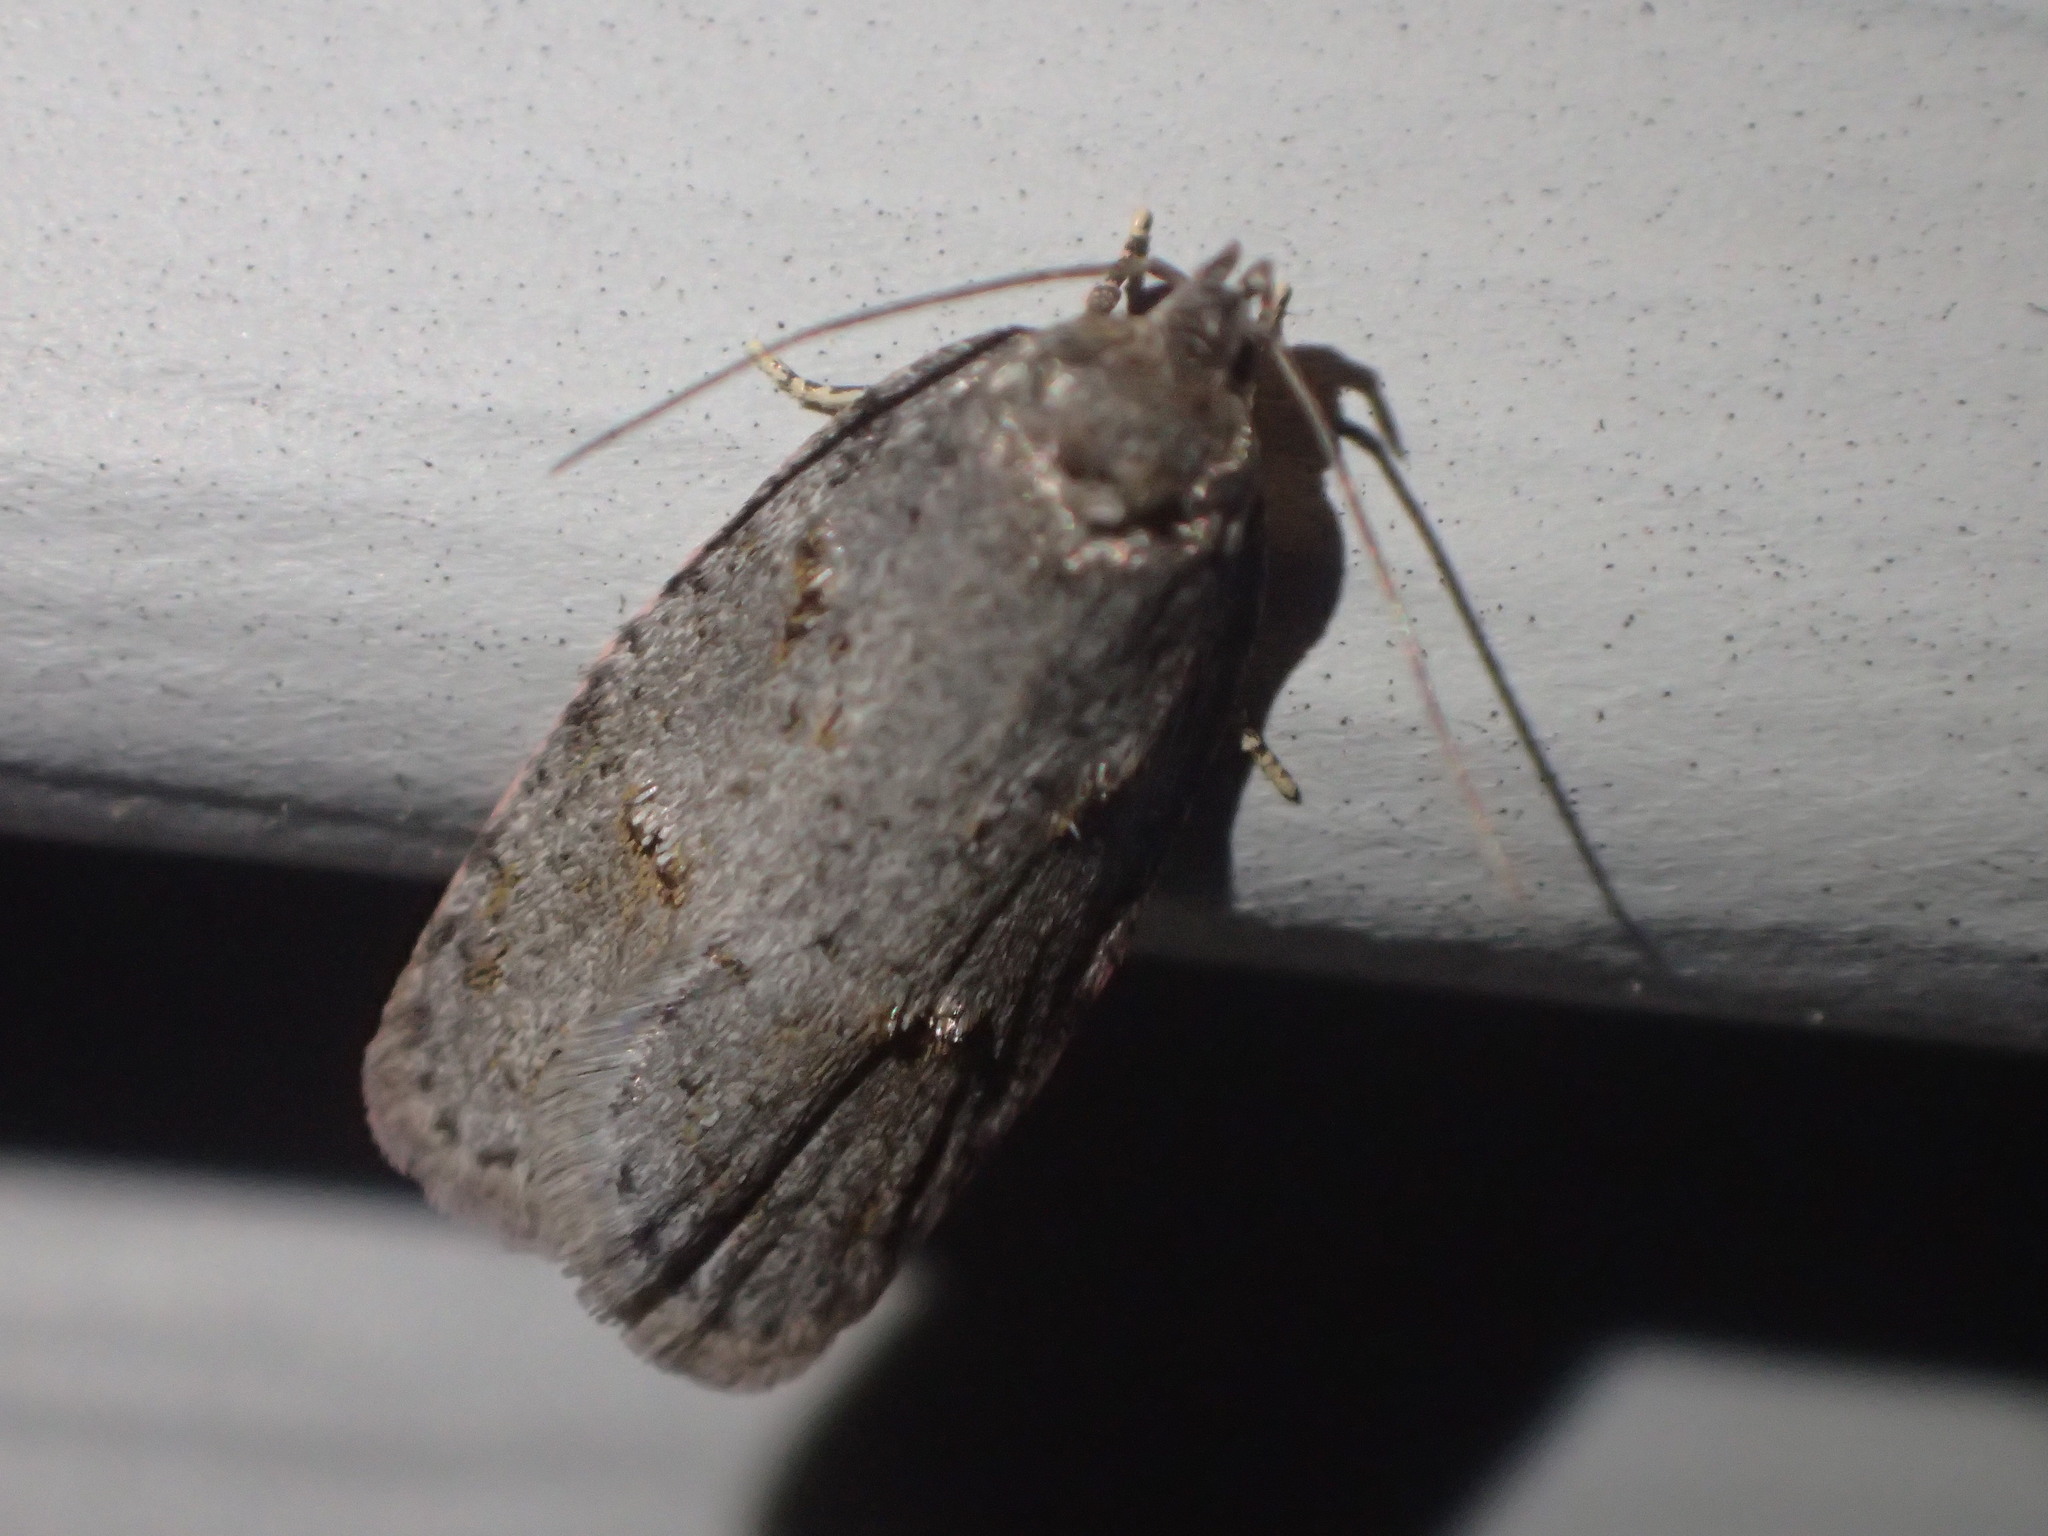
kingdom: Animalia
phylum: Arthropoda
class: Insecta
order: Lepidoptera
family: Depressariidae
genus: Bibarrambla
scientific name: Bibarrambla allenella
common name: Bog bibarrambla moth
